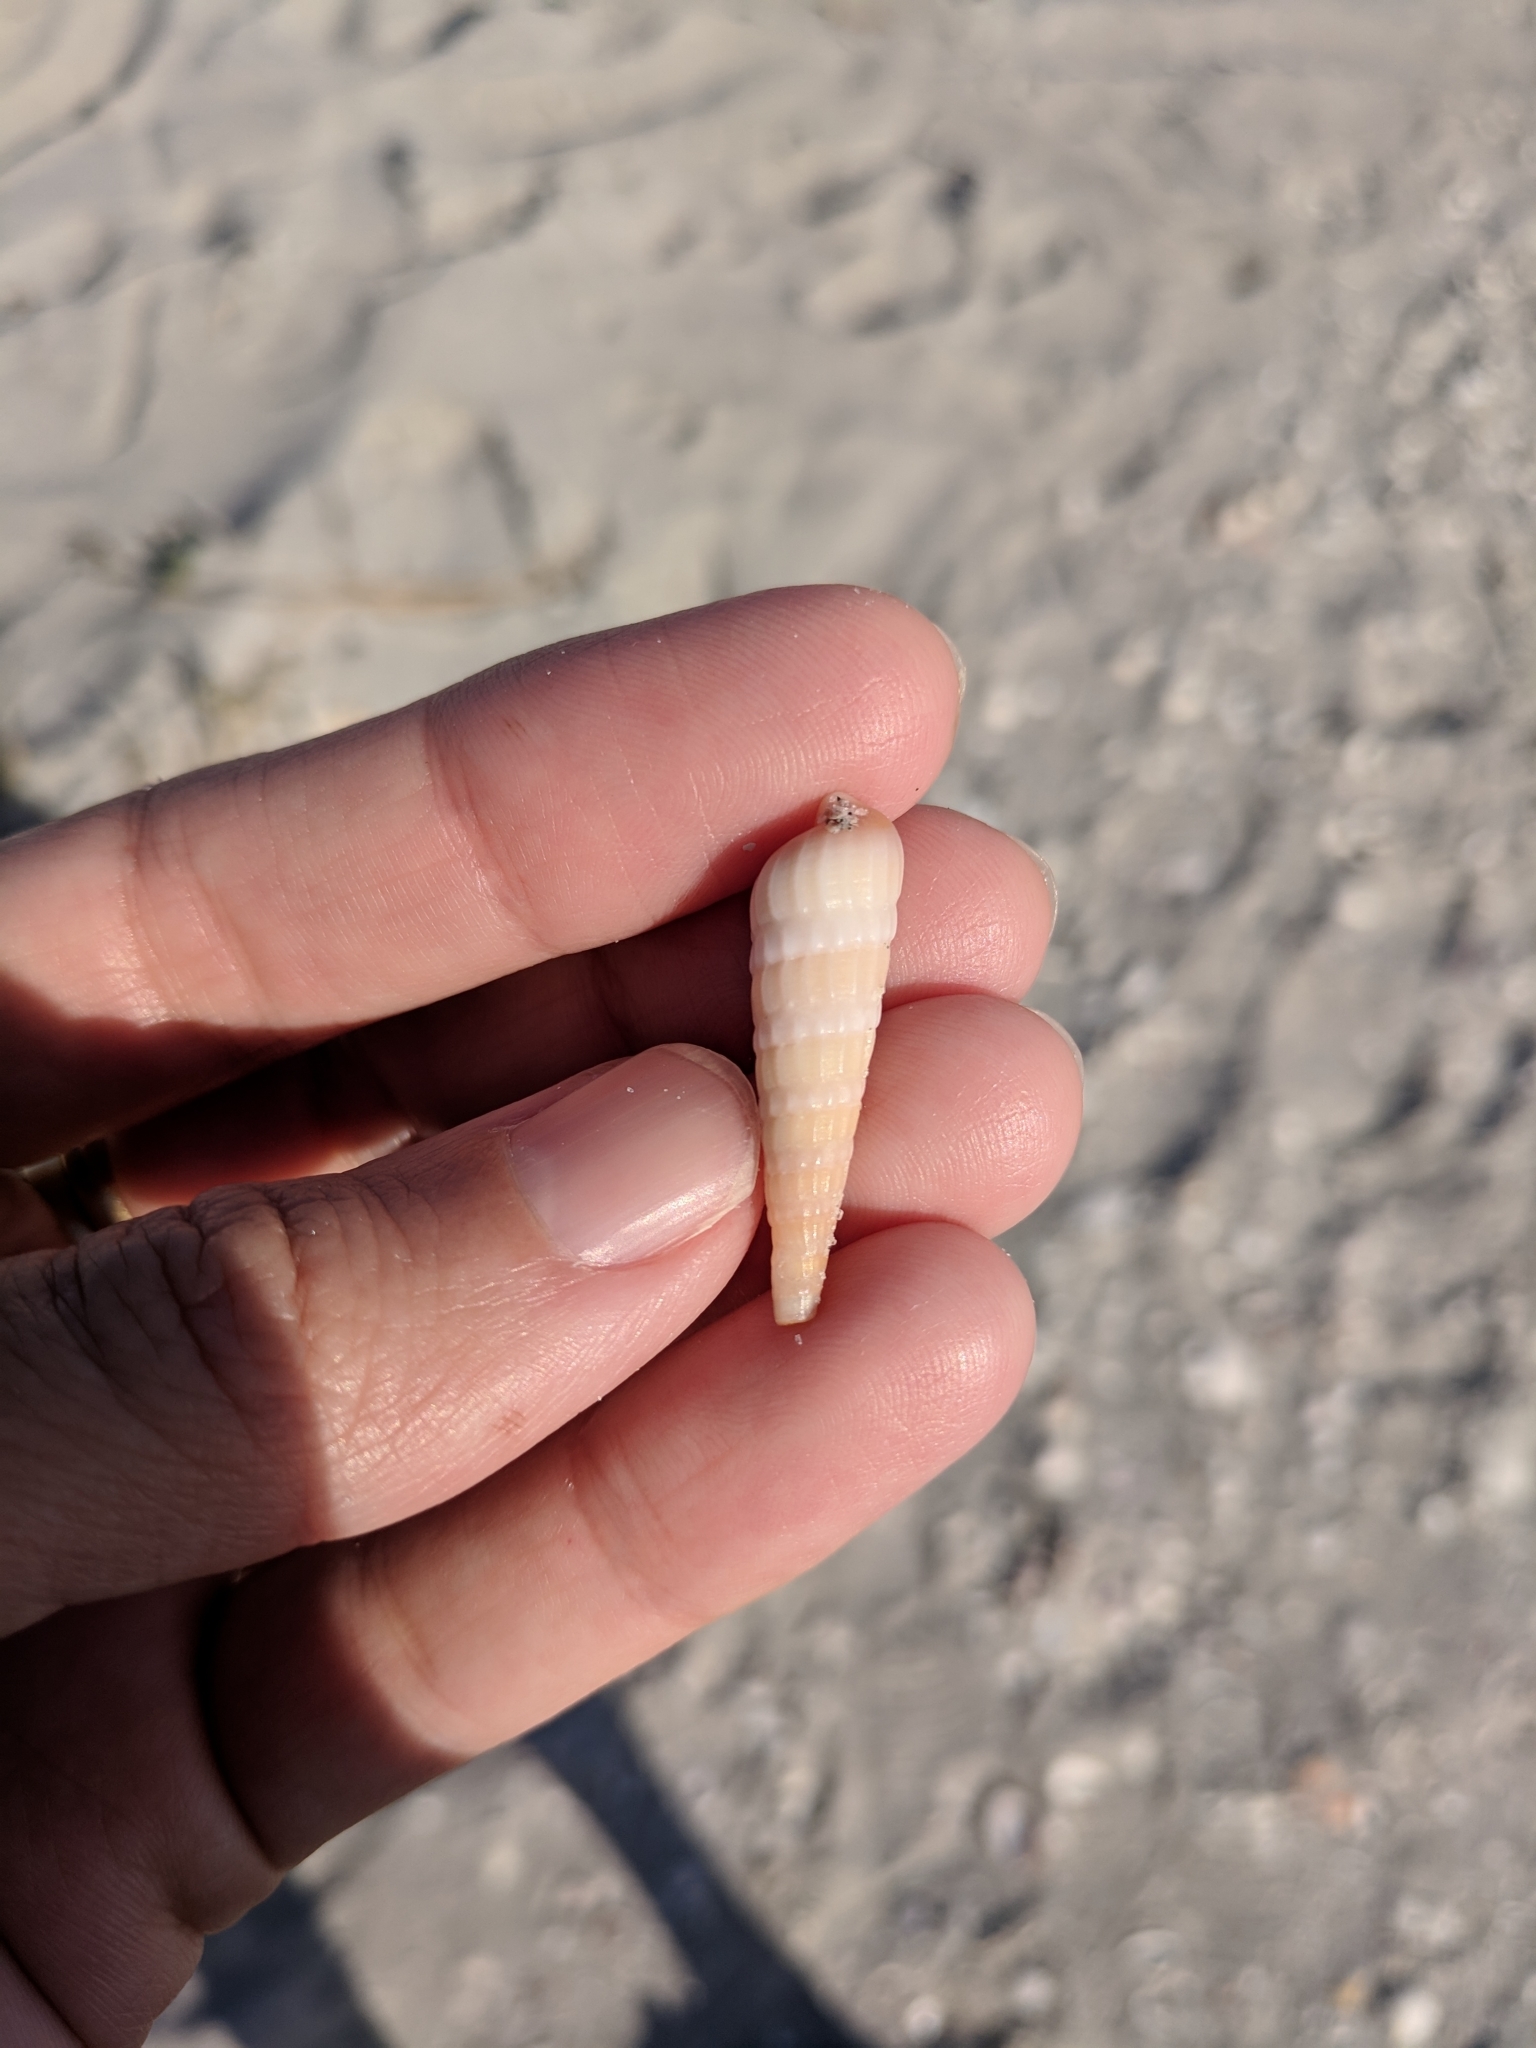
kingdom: Animalia
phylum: Mollusca
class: Gastropoda
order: Neogastropoda
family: Terebridae
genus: Neoterebra
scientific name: Neoterebra dislocata
